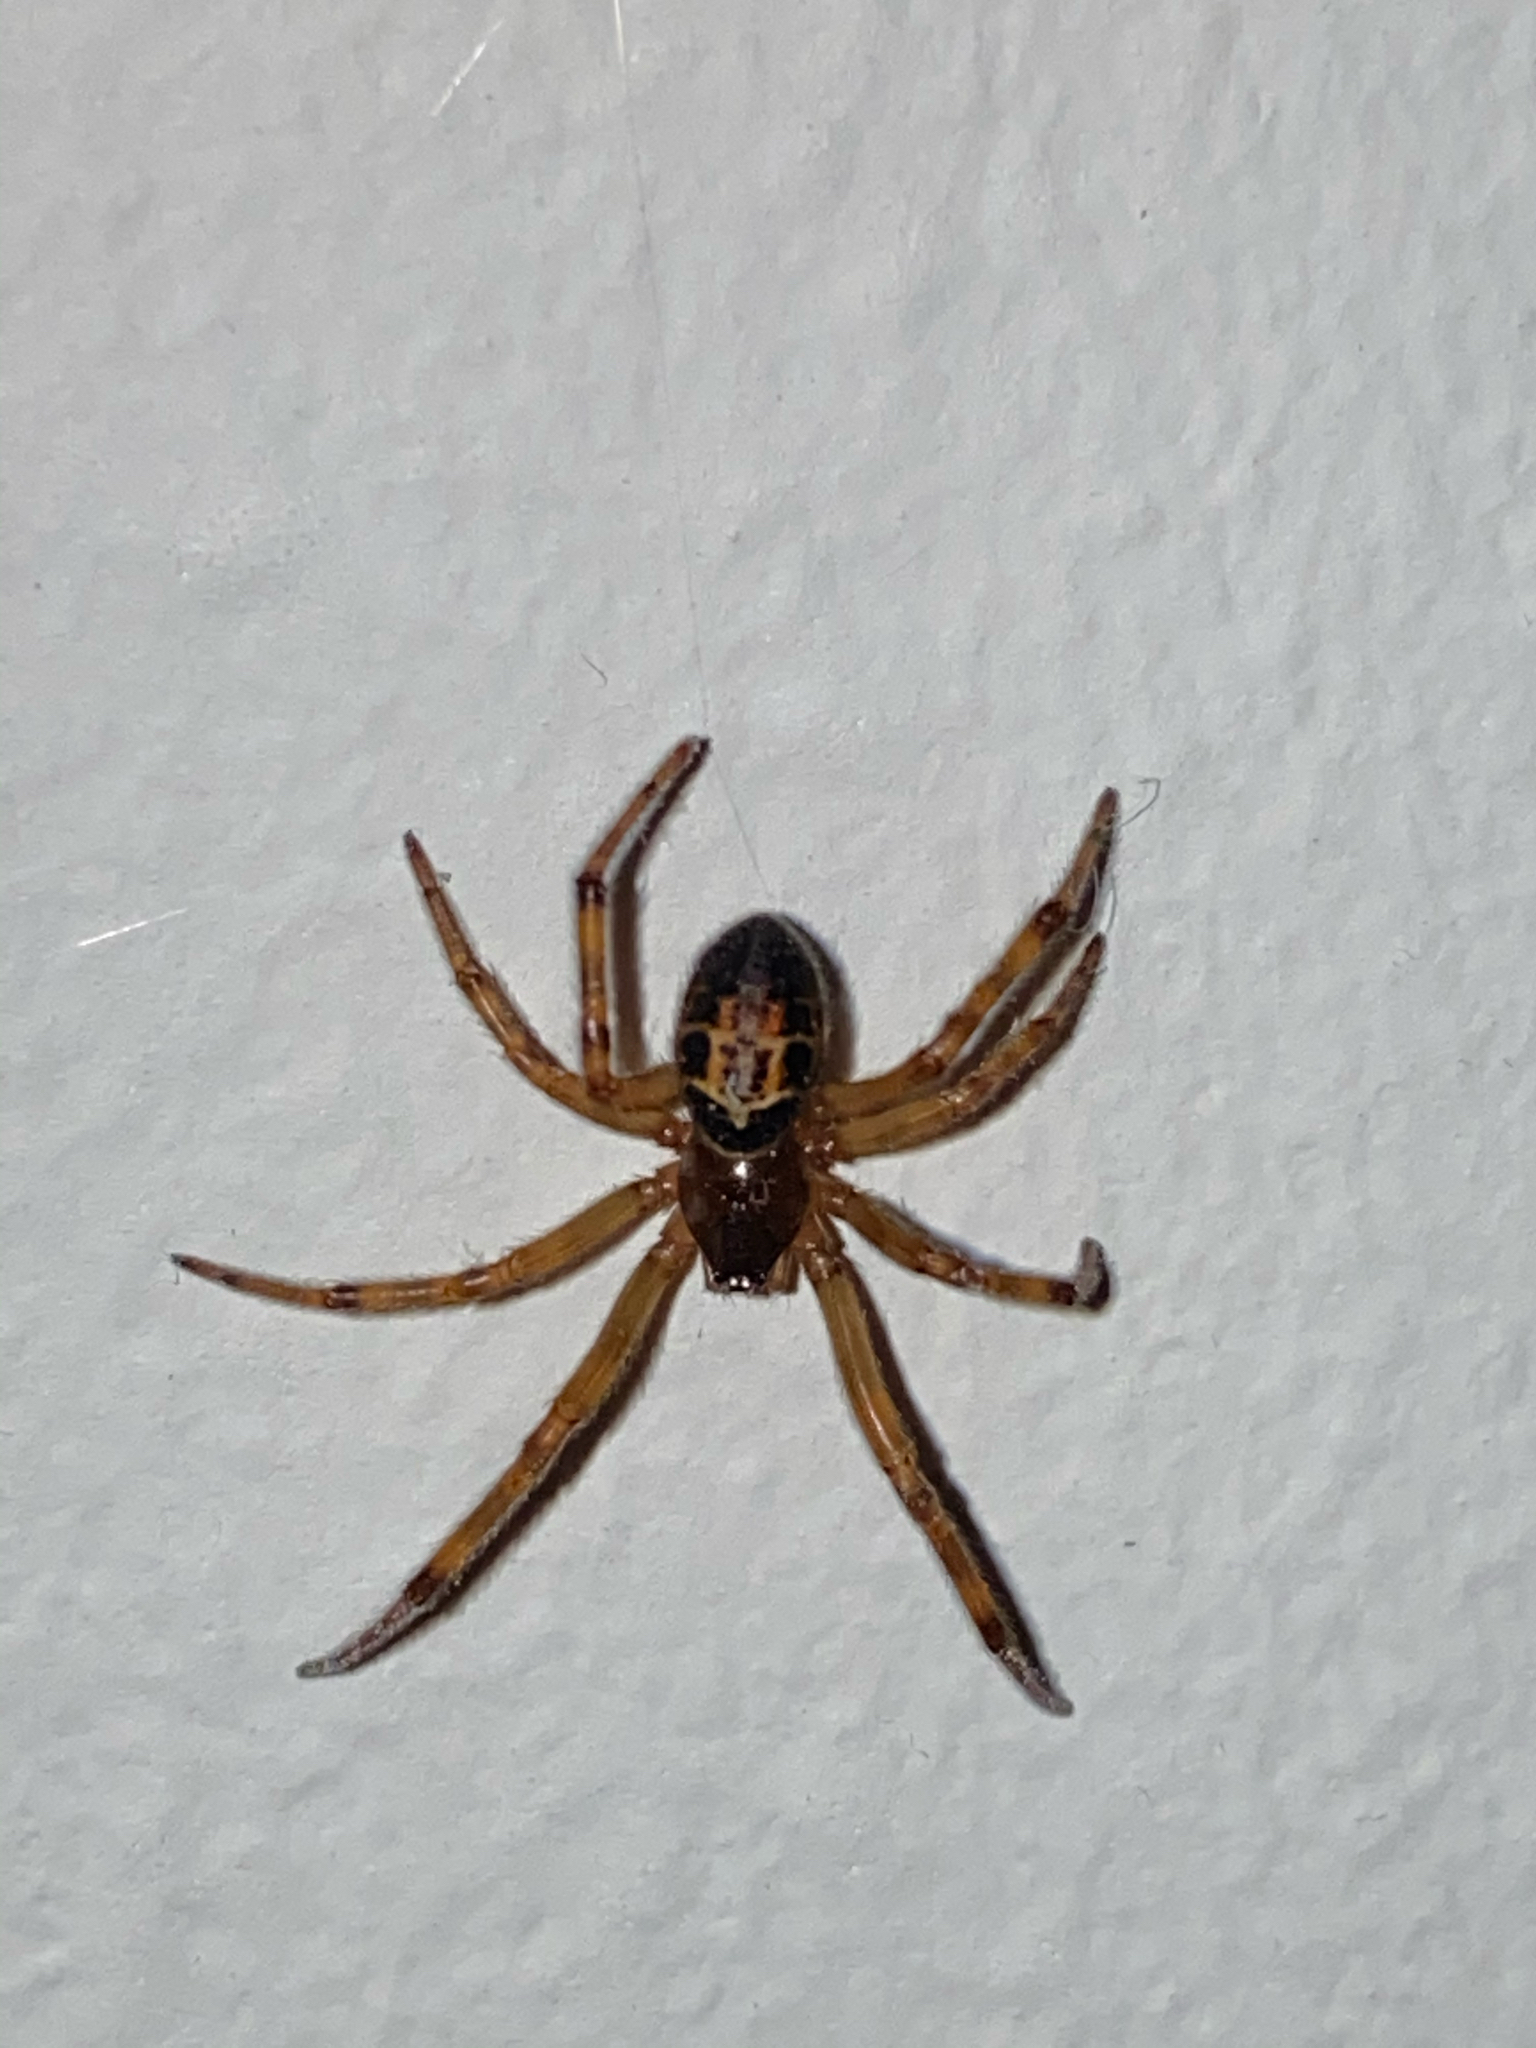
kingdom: Animalia
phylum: Arthropoda
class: Arachnida
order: Araneae
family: Theridiidae
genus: Steatoda
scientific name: Steatoda nobilis
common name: Cobweb weaver
